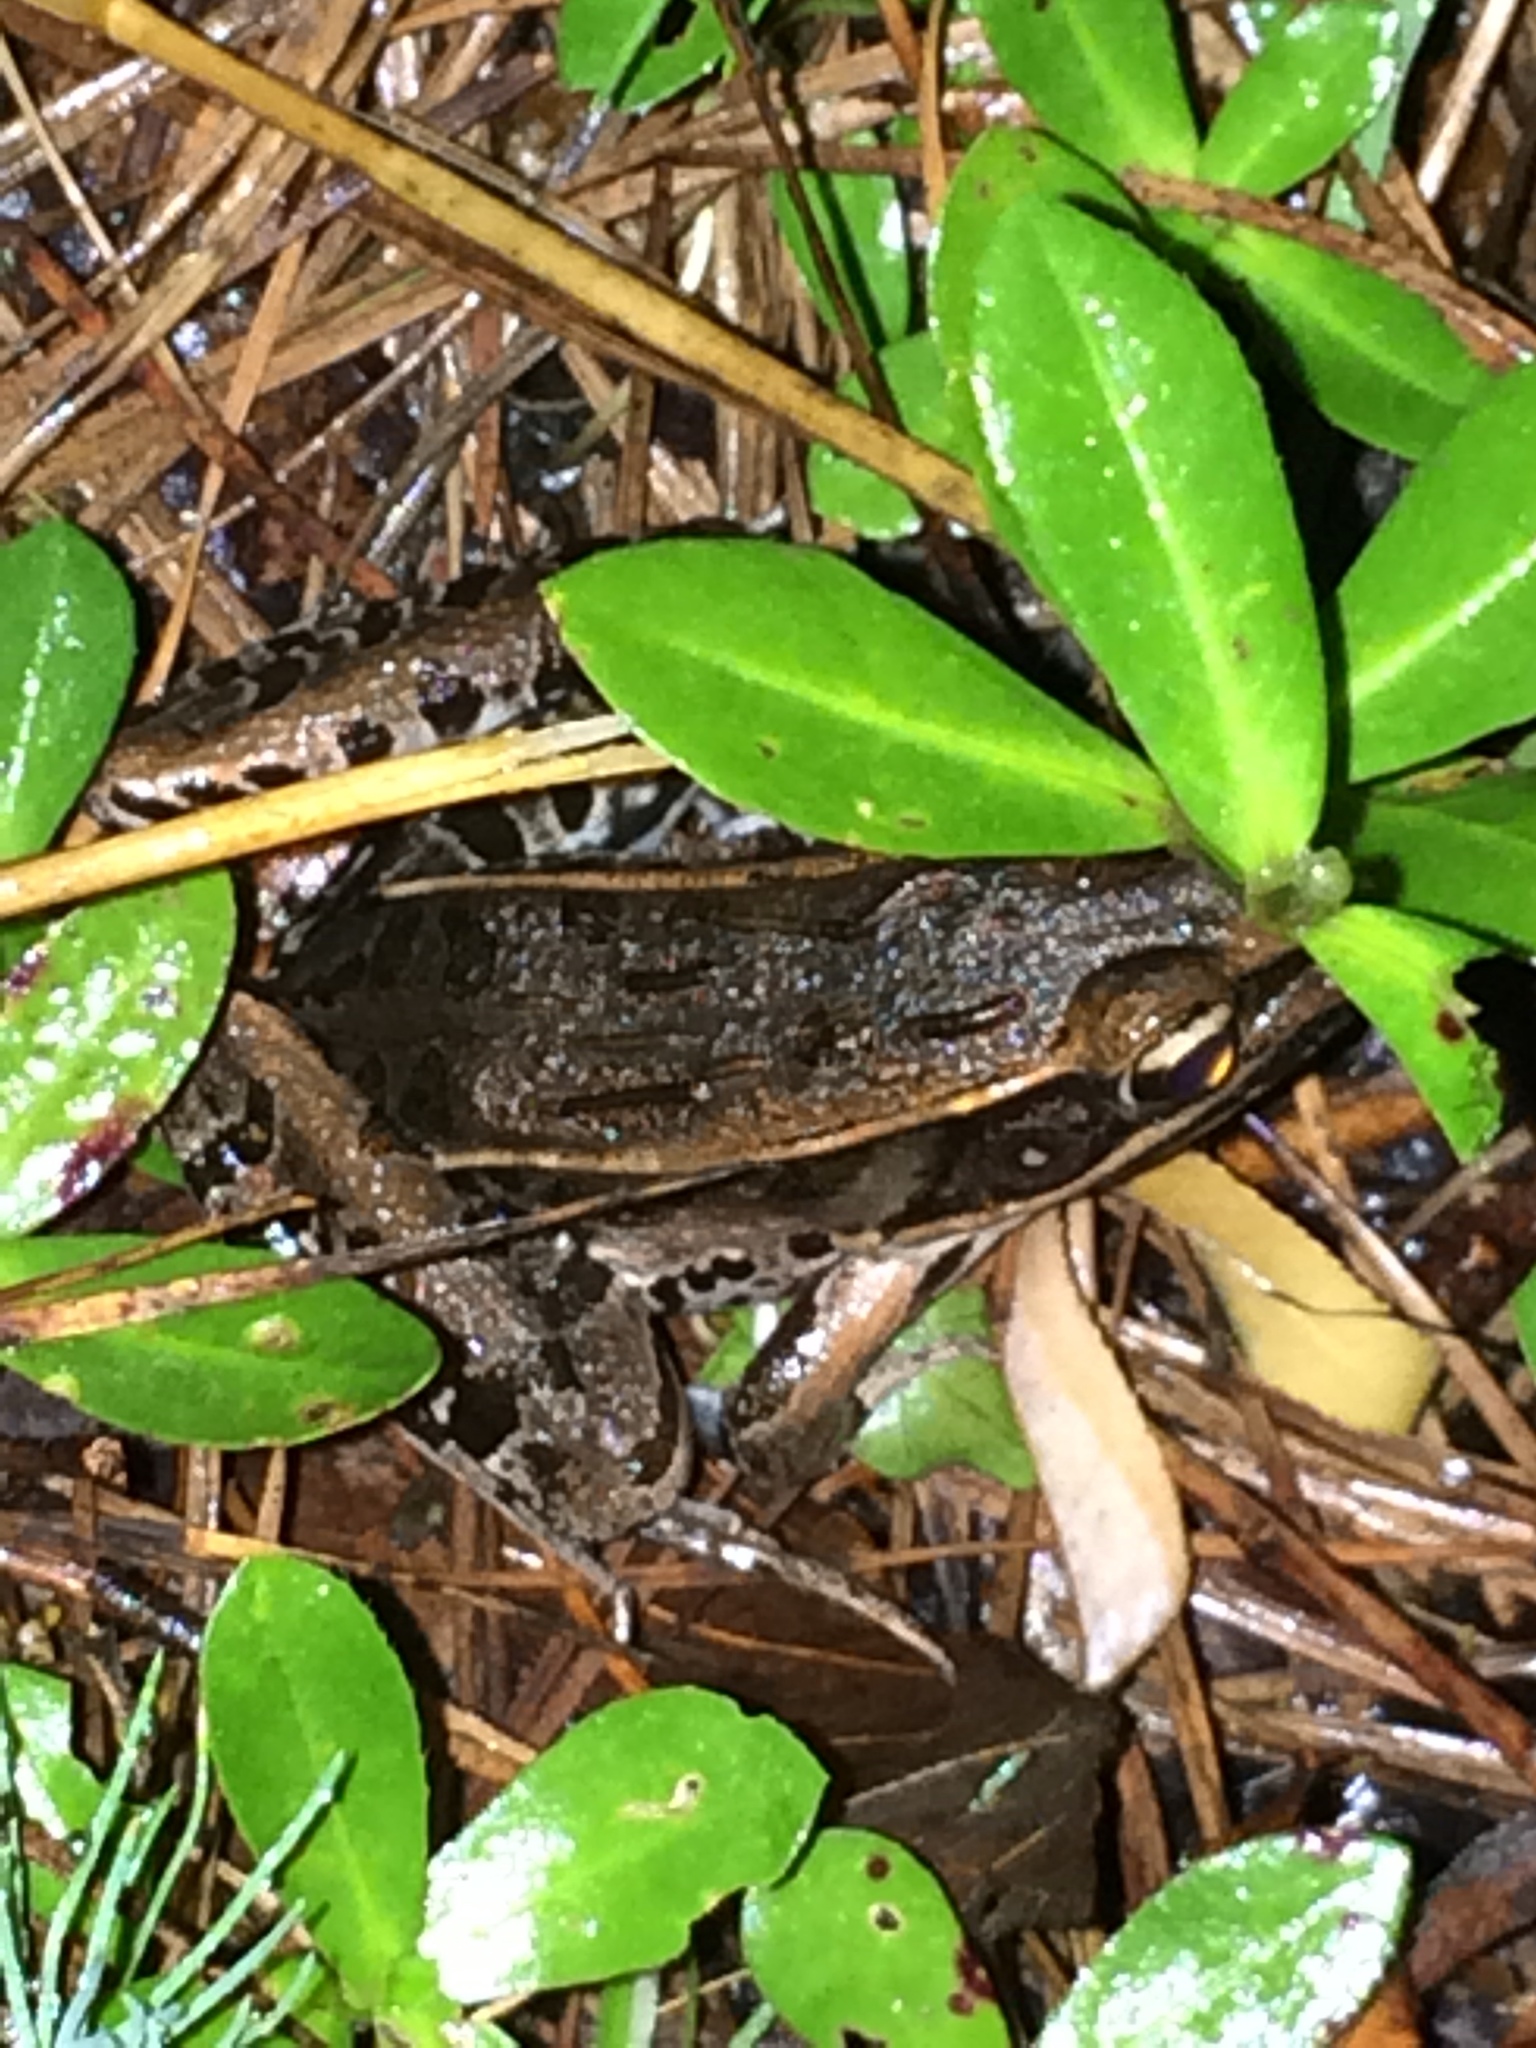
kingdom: Animalia
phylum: Chordata
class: Amphibia
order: Anura
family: Ranidae
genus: Lithobates
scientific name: Lithobates sphenocephalus
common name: Southern leopard frog
